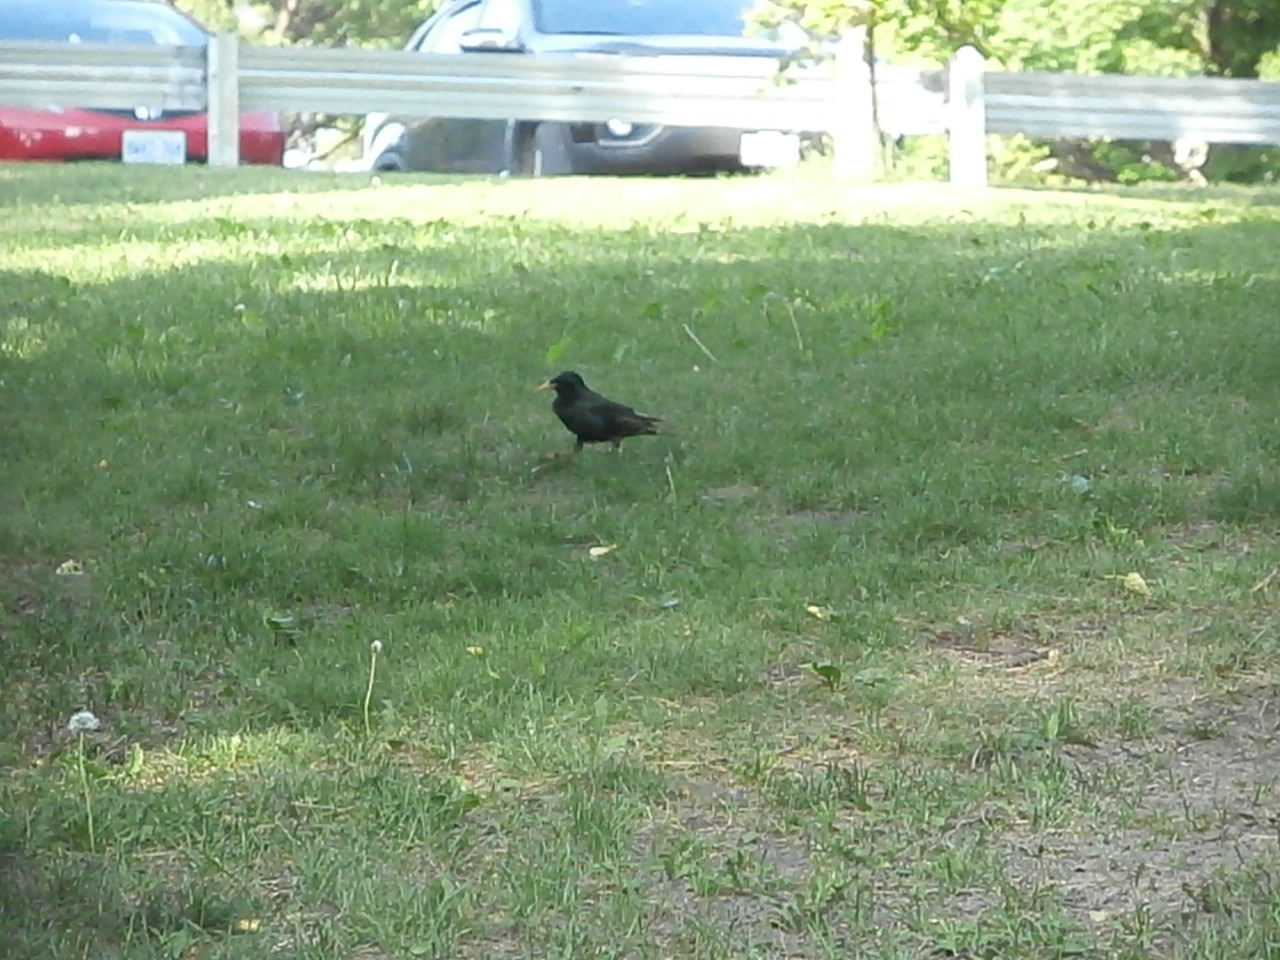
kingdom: Animalia
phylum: Chordata
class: Aves
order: Passeriformes
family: Sturnidae
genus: Sturnus
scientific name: Sturnus vulgaris
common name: Common starling
